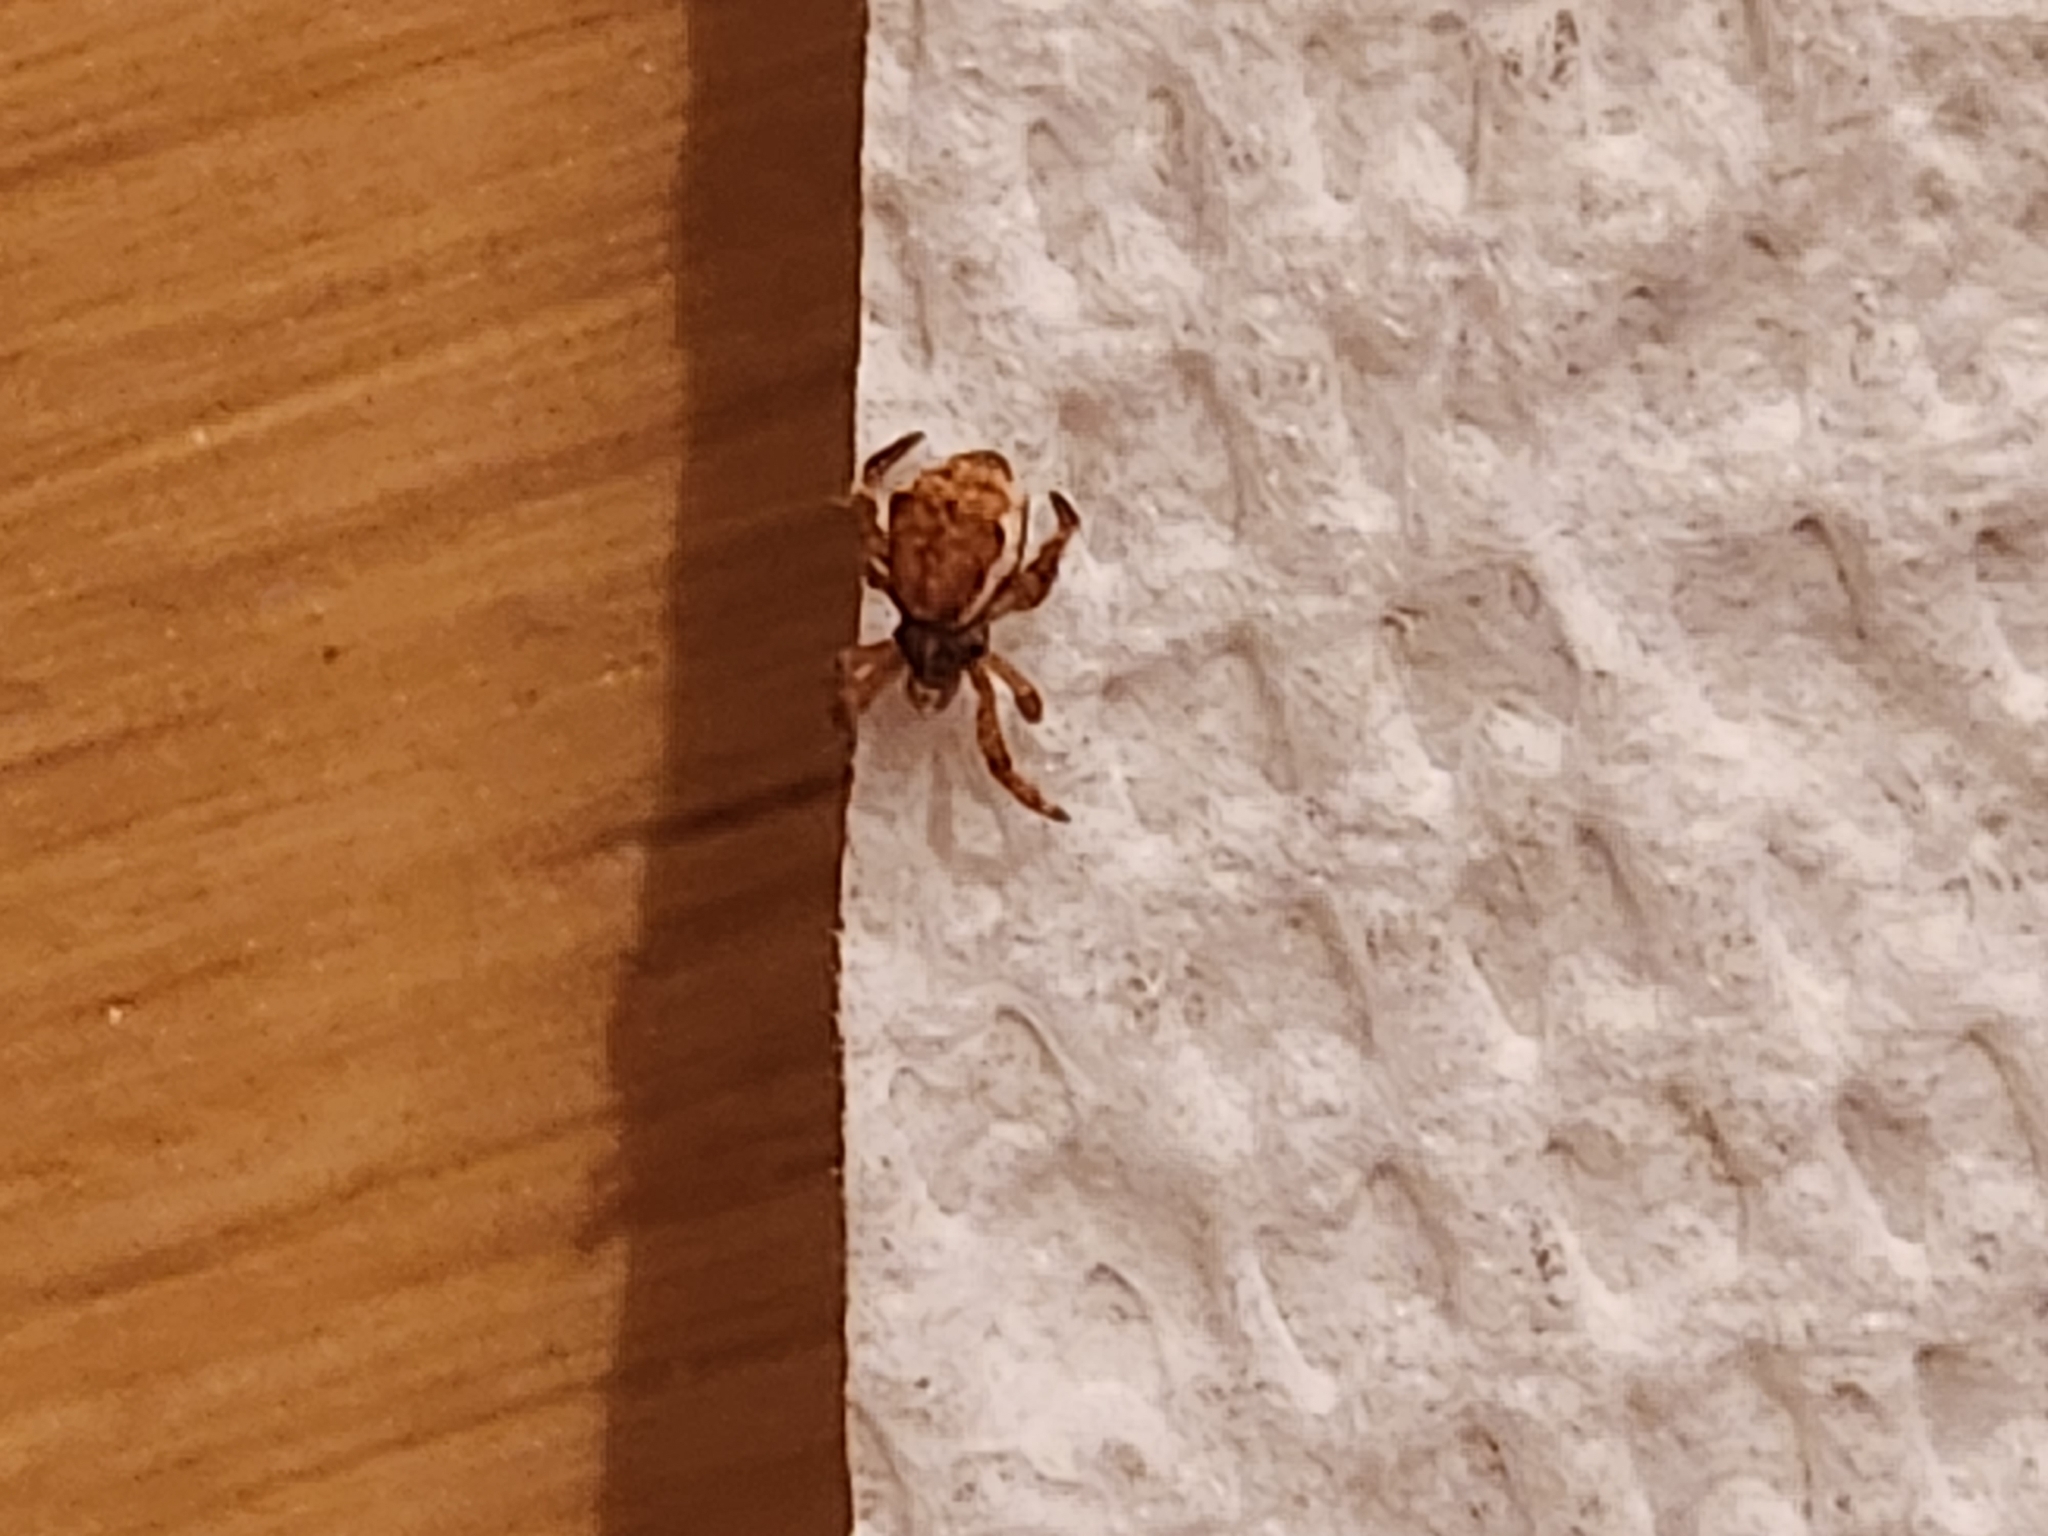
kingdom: Animalia
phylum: Arthropoda
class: Arachnida
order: Araneae
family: Uloboridae
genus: Hyptiotes
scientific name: Hyptiotes gertschi
